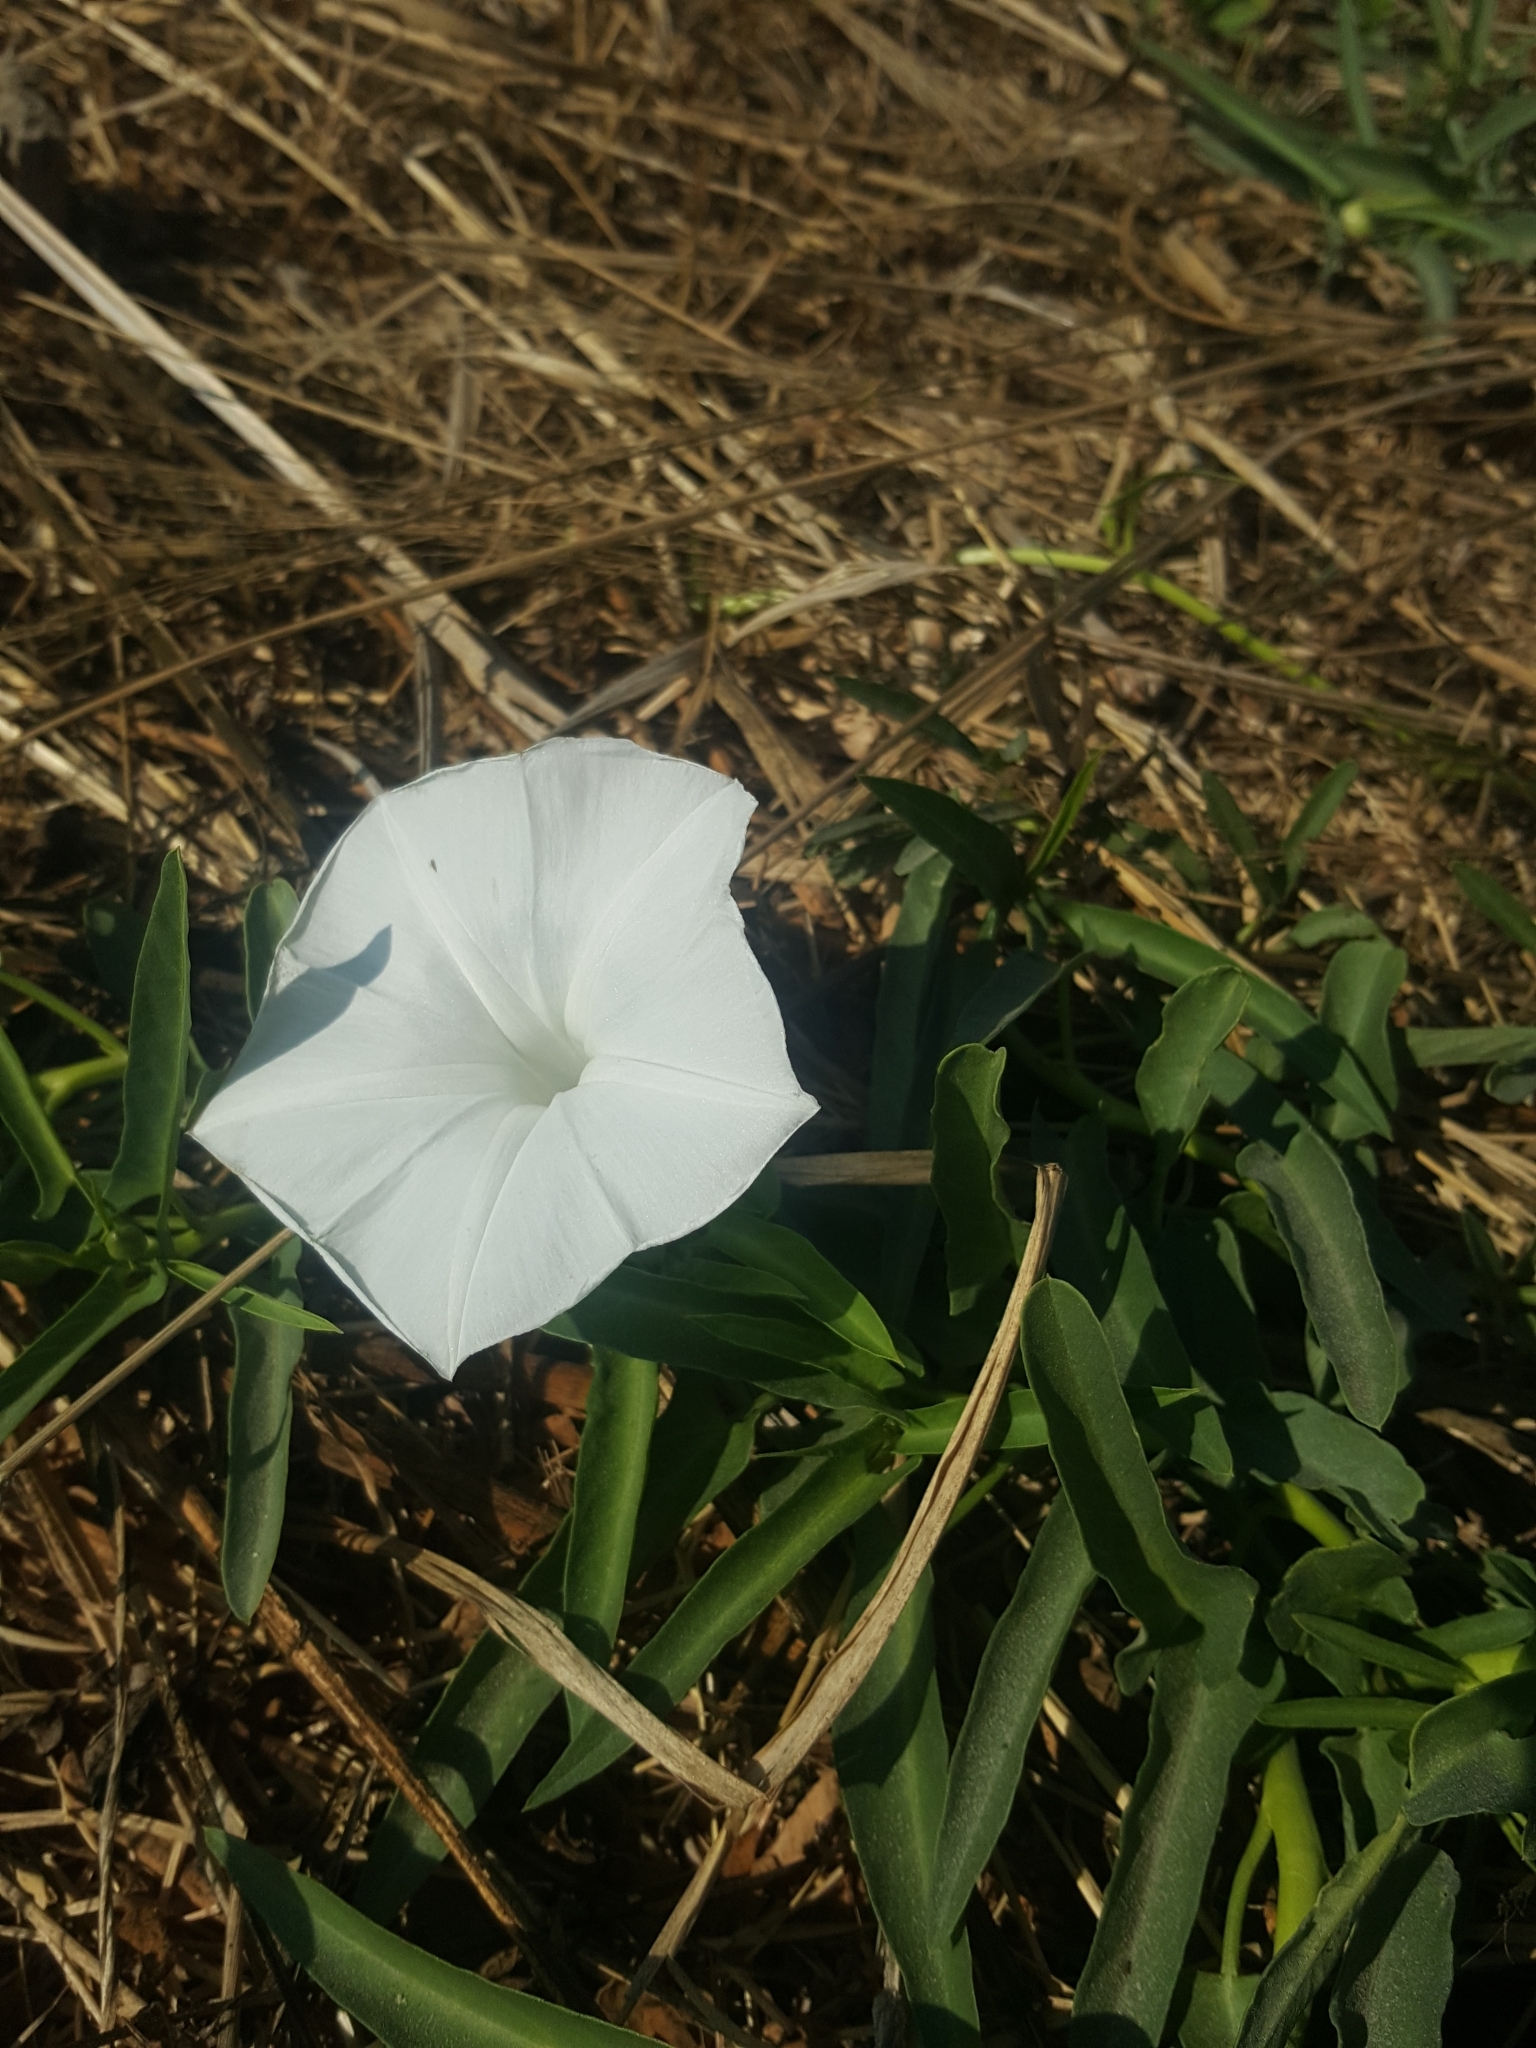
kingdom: Plantae
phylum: Tracheophyta
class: Magnoliopsida
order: Solanales
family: Convolvulaceae
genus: Ipomoea
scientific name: Ipomoea aquatica
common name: Swamp morning-glory
